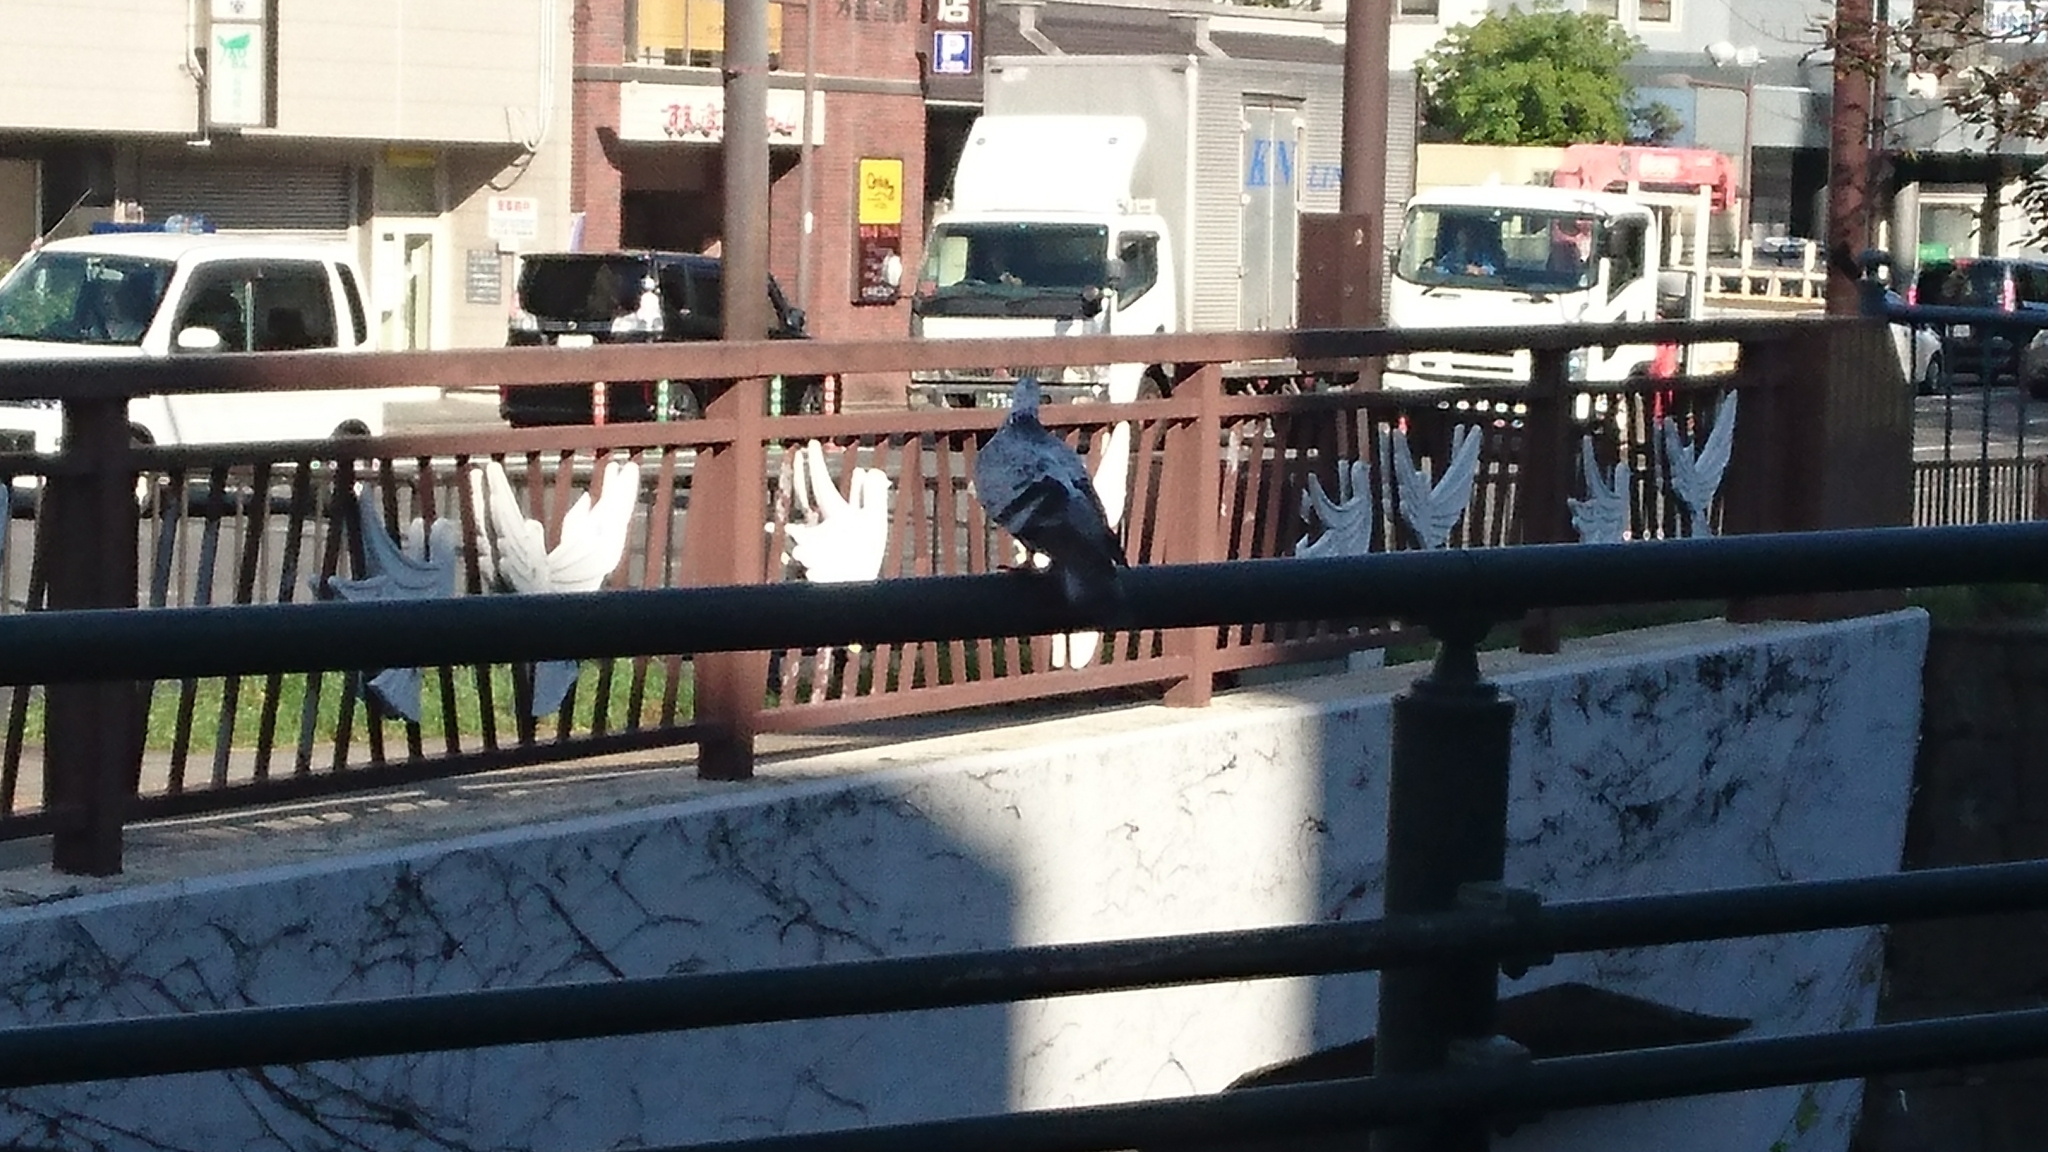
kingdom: Animalia
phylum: Chordata
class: Aves
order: Columbiformes
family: Columbidae
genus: Columba
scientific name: Columba livia
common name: Rock pigeon
